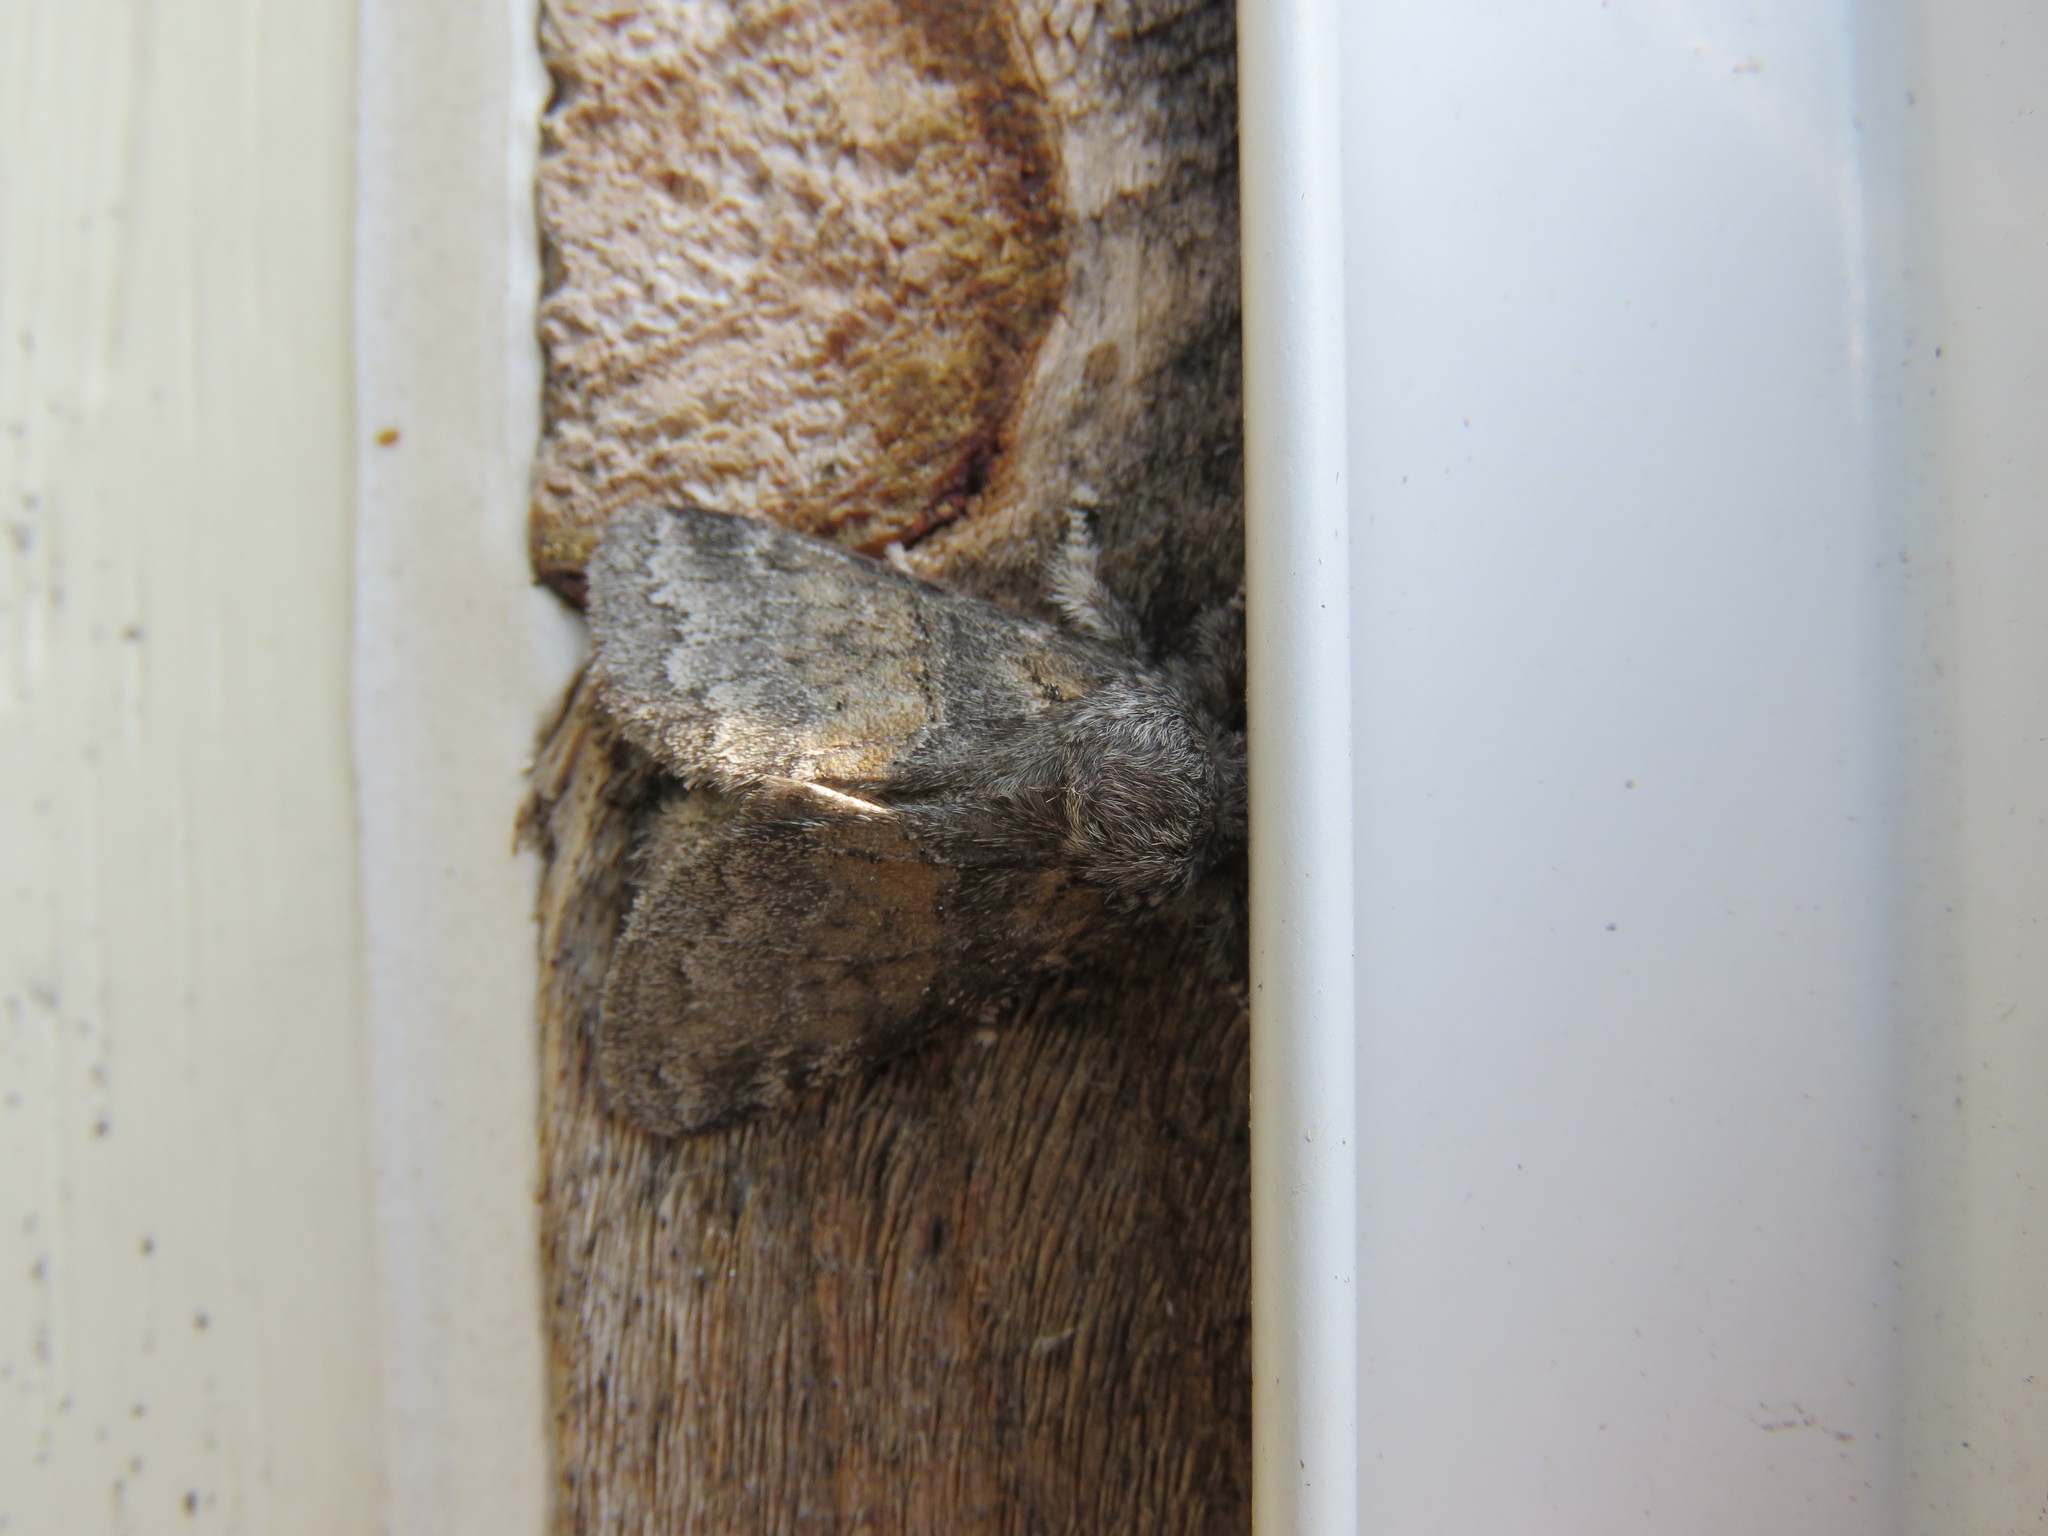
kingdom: Animalia
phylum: Arthropoda
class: Insecta
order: Lepidoptera
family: Notodontidae
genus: Gluphisia
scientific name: Gluphisia septentrionis
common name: Common gluphisia
